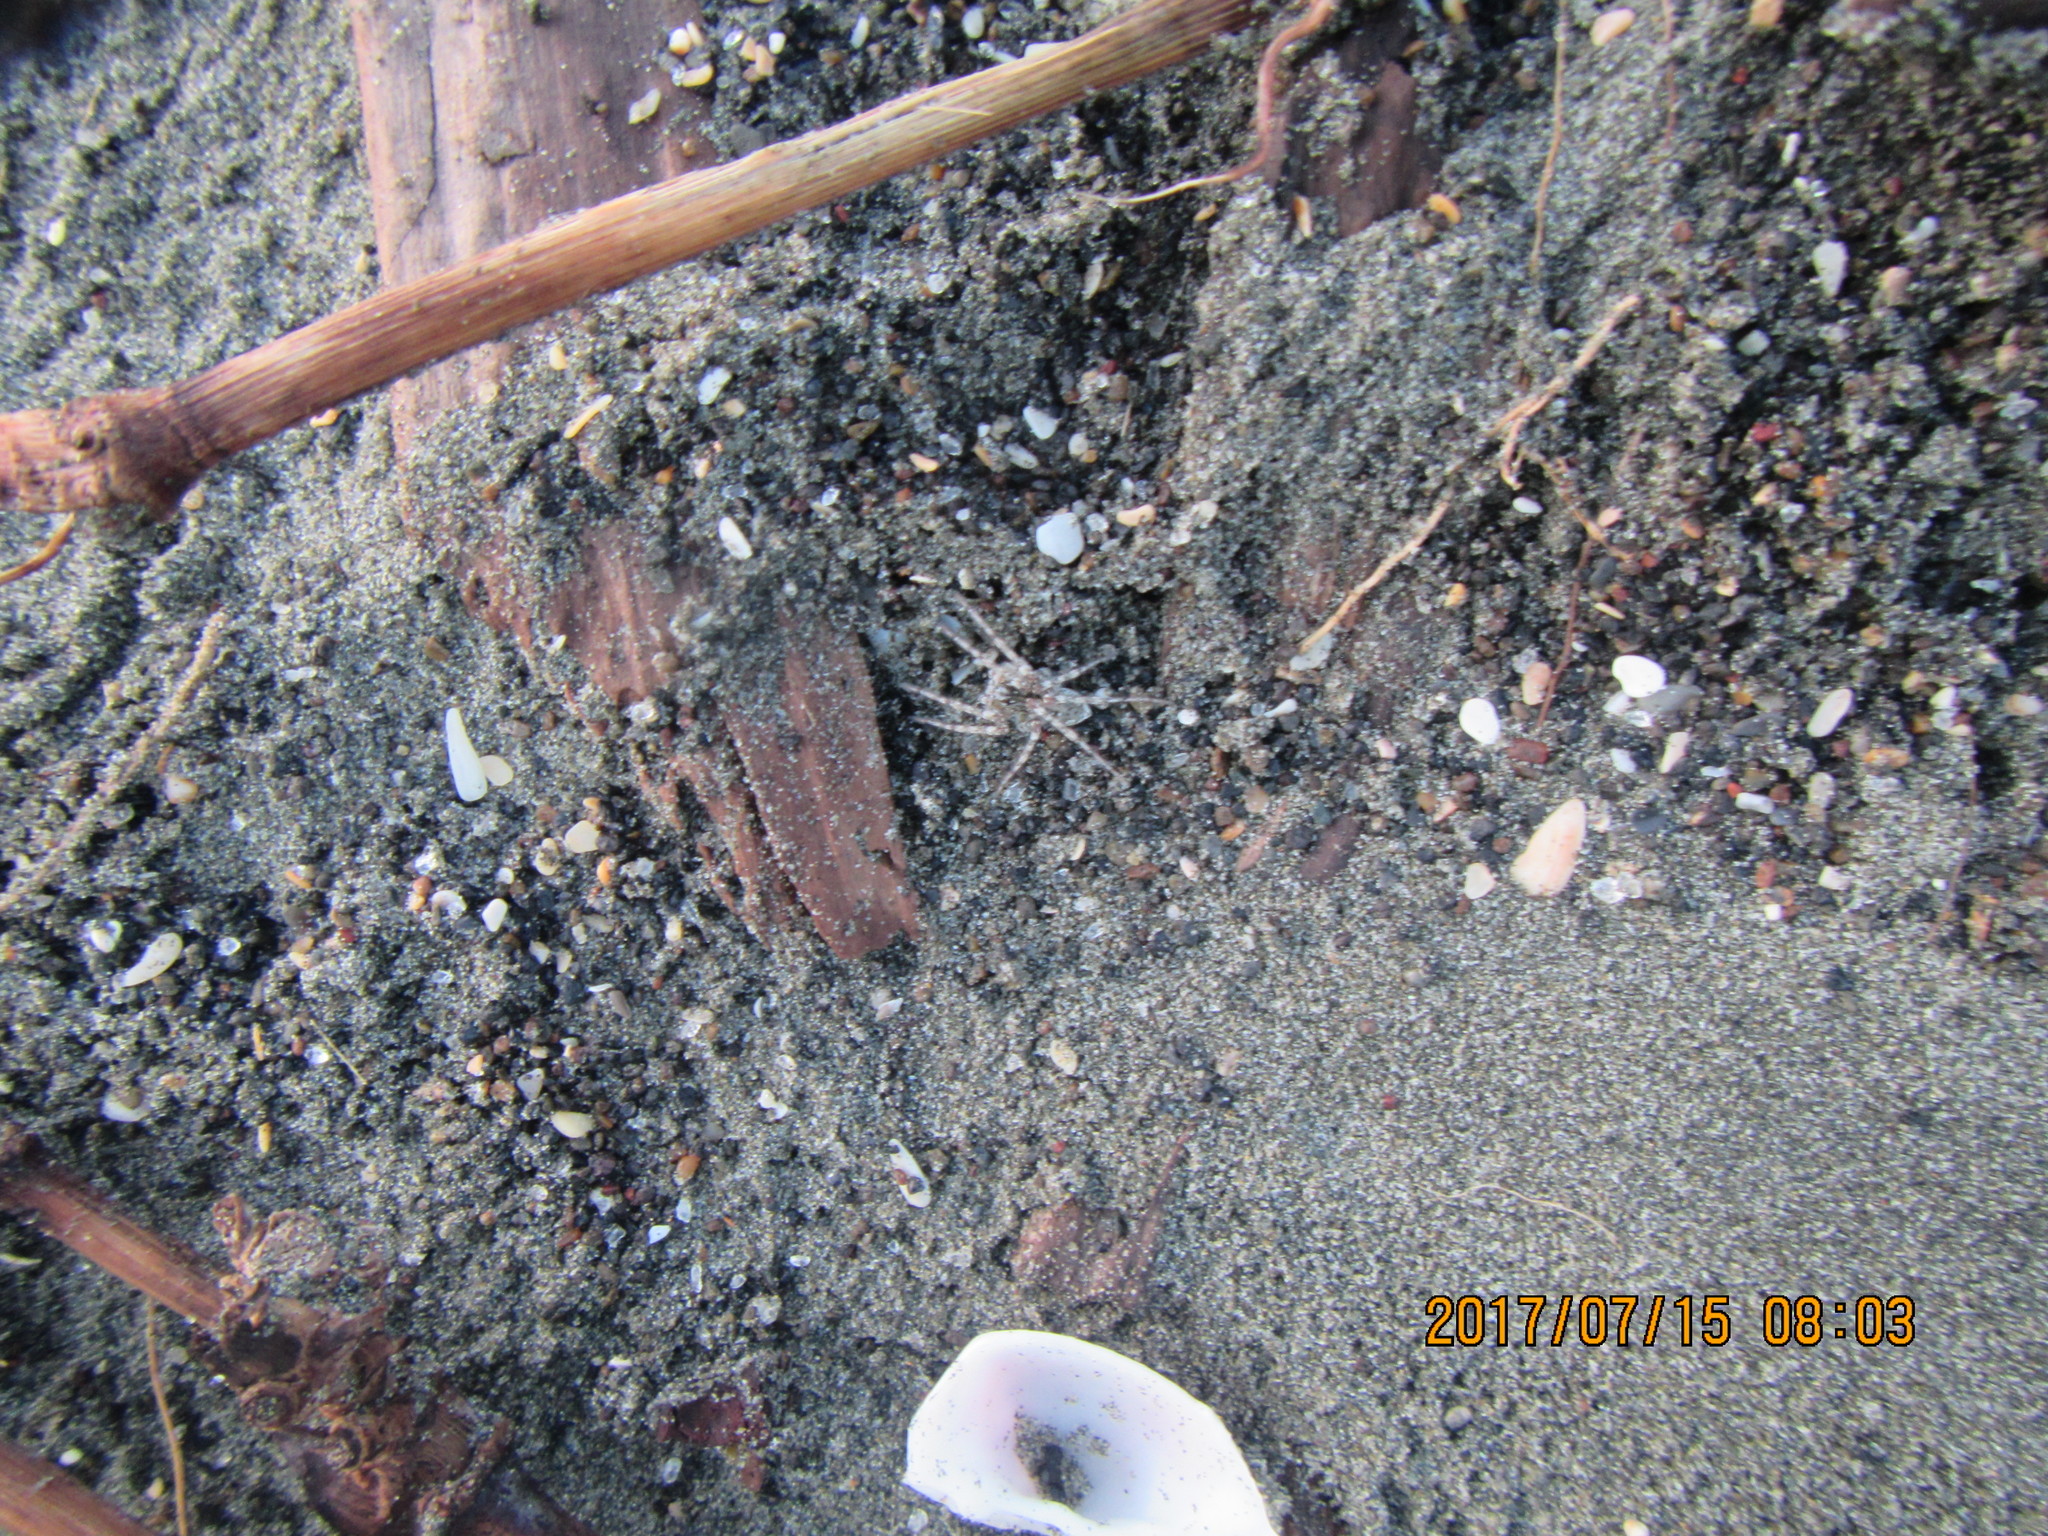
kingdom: Animalia
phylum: Arthropoda
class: Arachnida
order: Araneae
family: Lycosidae
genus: Anoteropsis
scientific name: Anoteropsis litoralis
